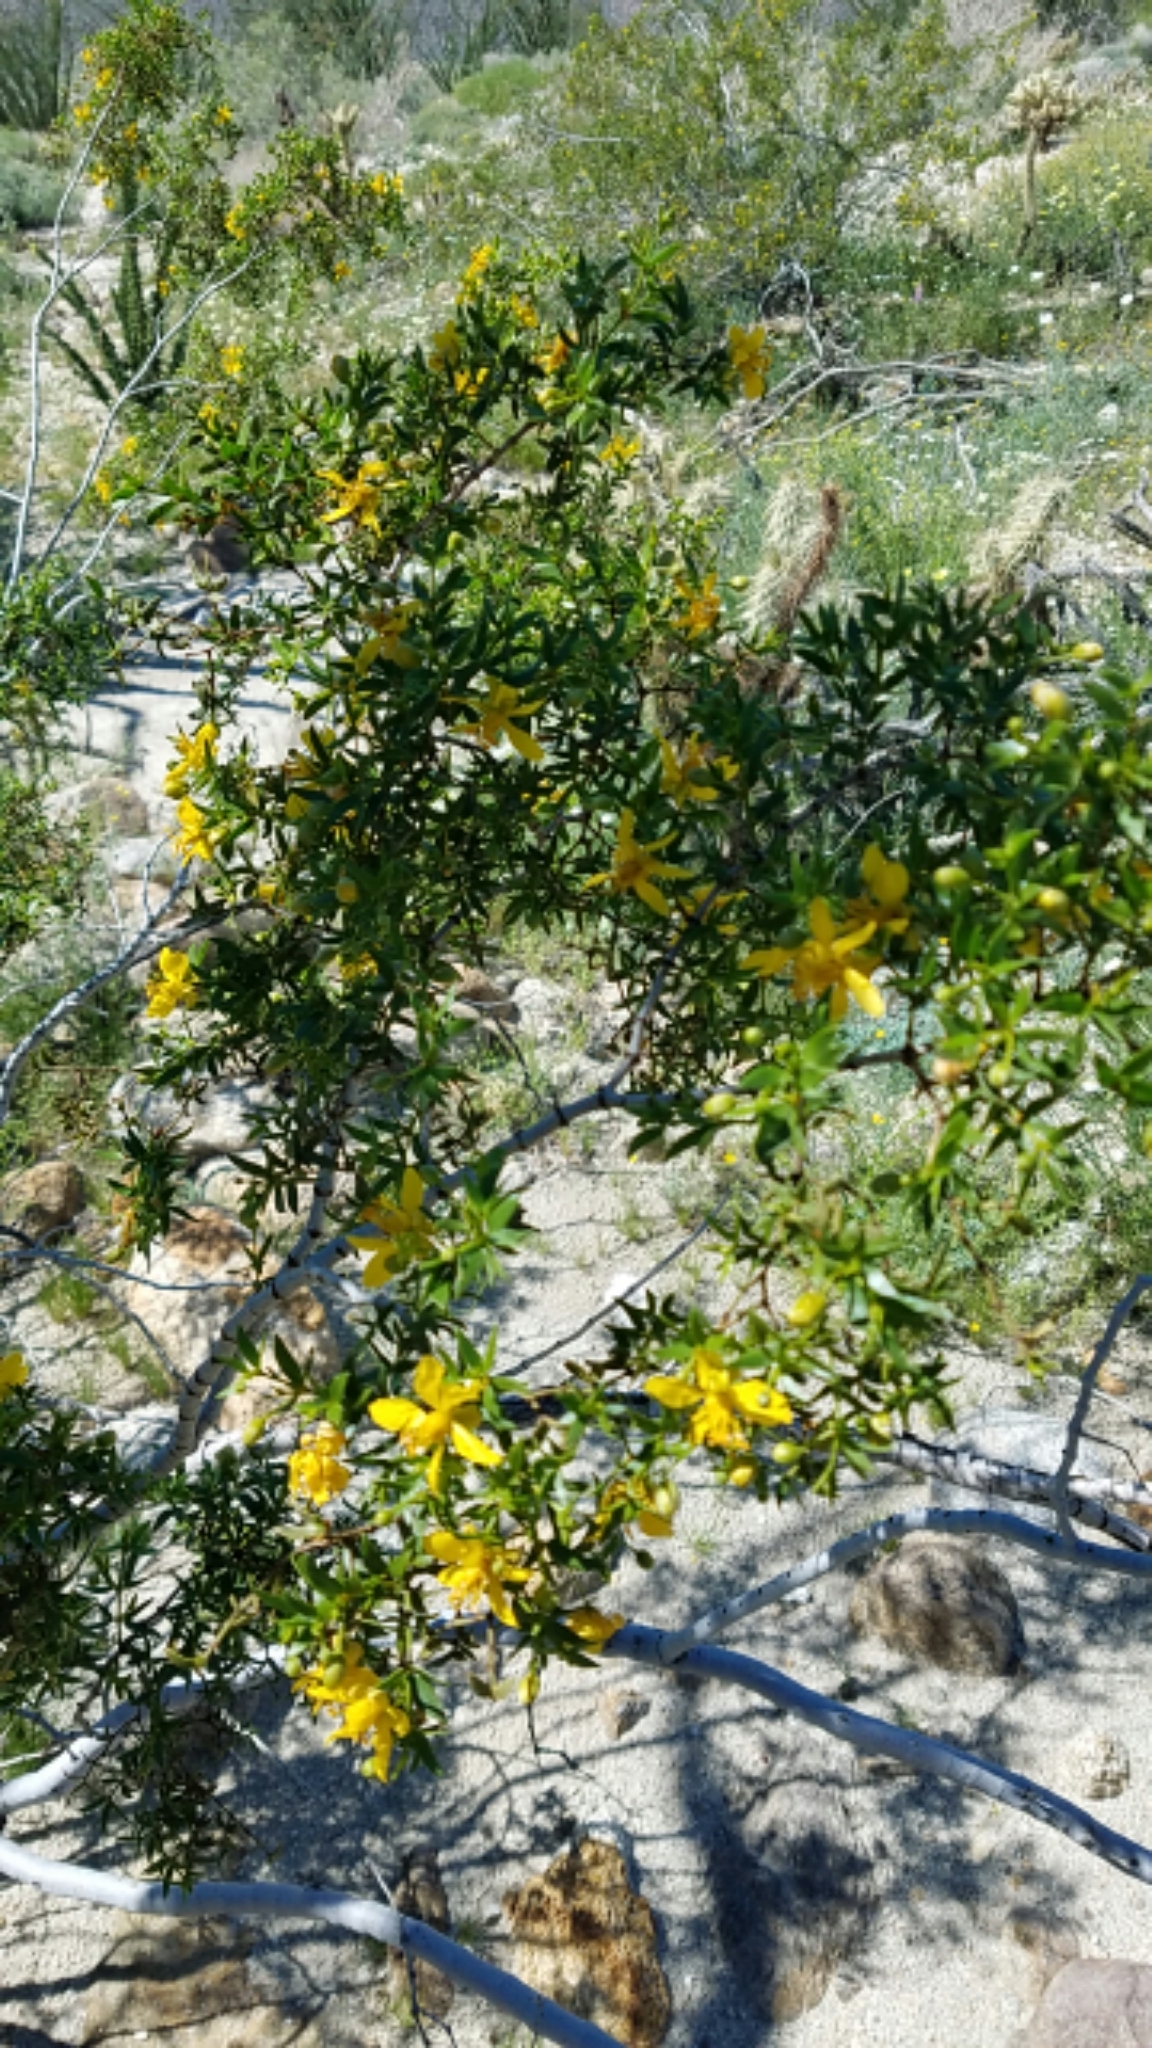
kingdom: Plantae
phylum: Tracheophyta
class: Magnoliopsida
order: Zygophyllales
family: Zygophyllaceae
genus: Larrea
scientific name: Larrea tridentata
